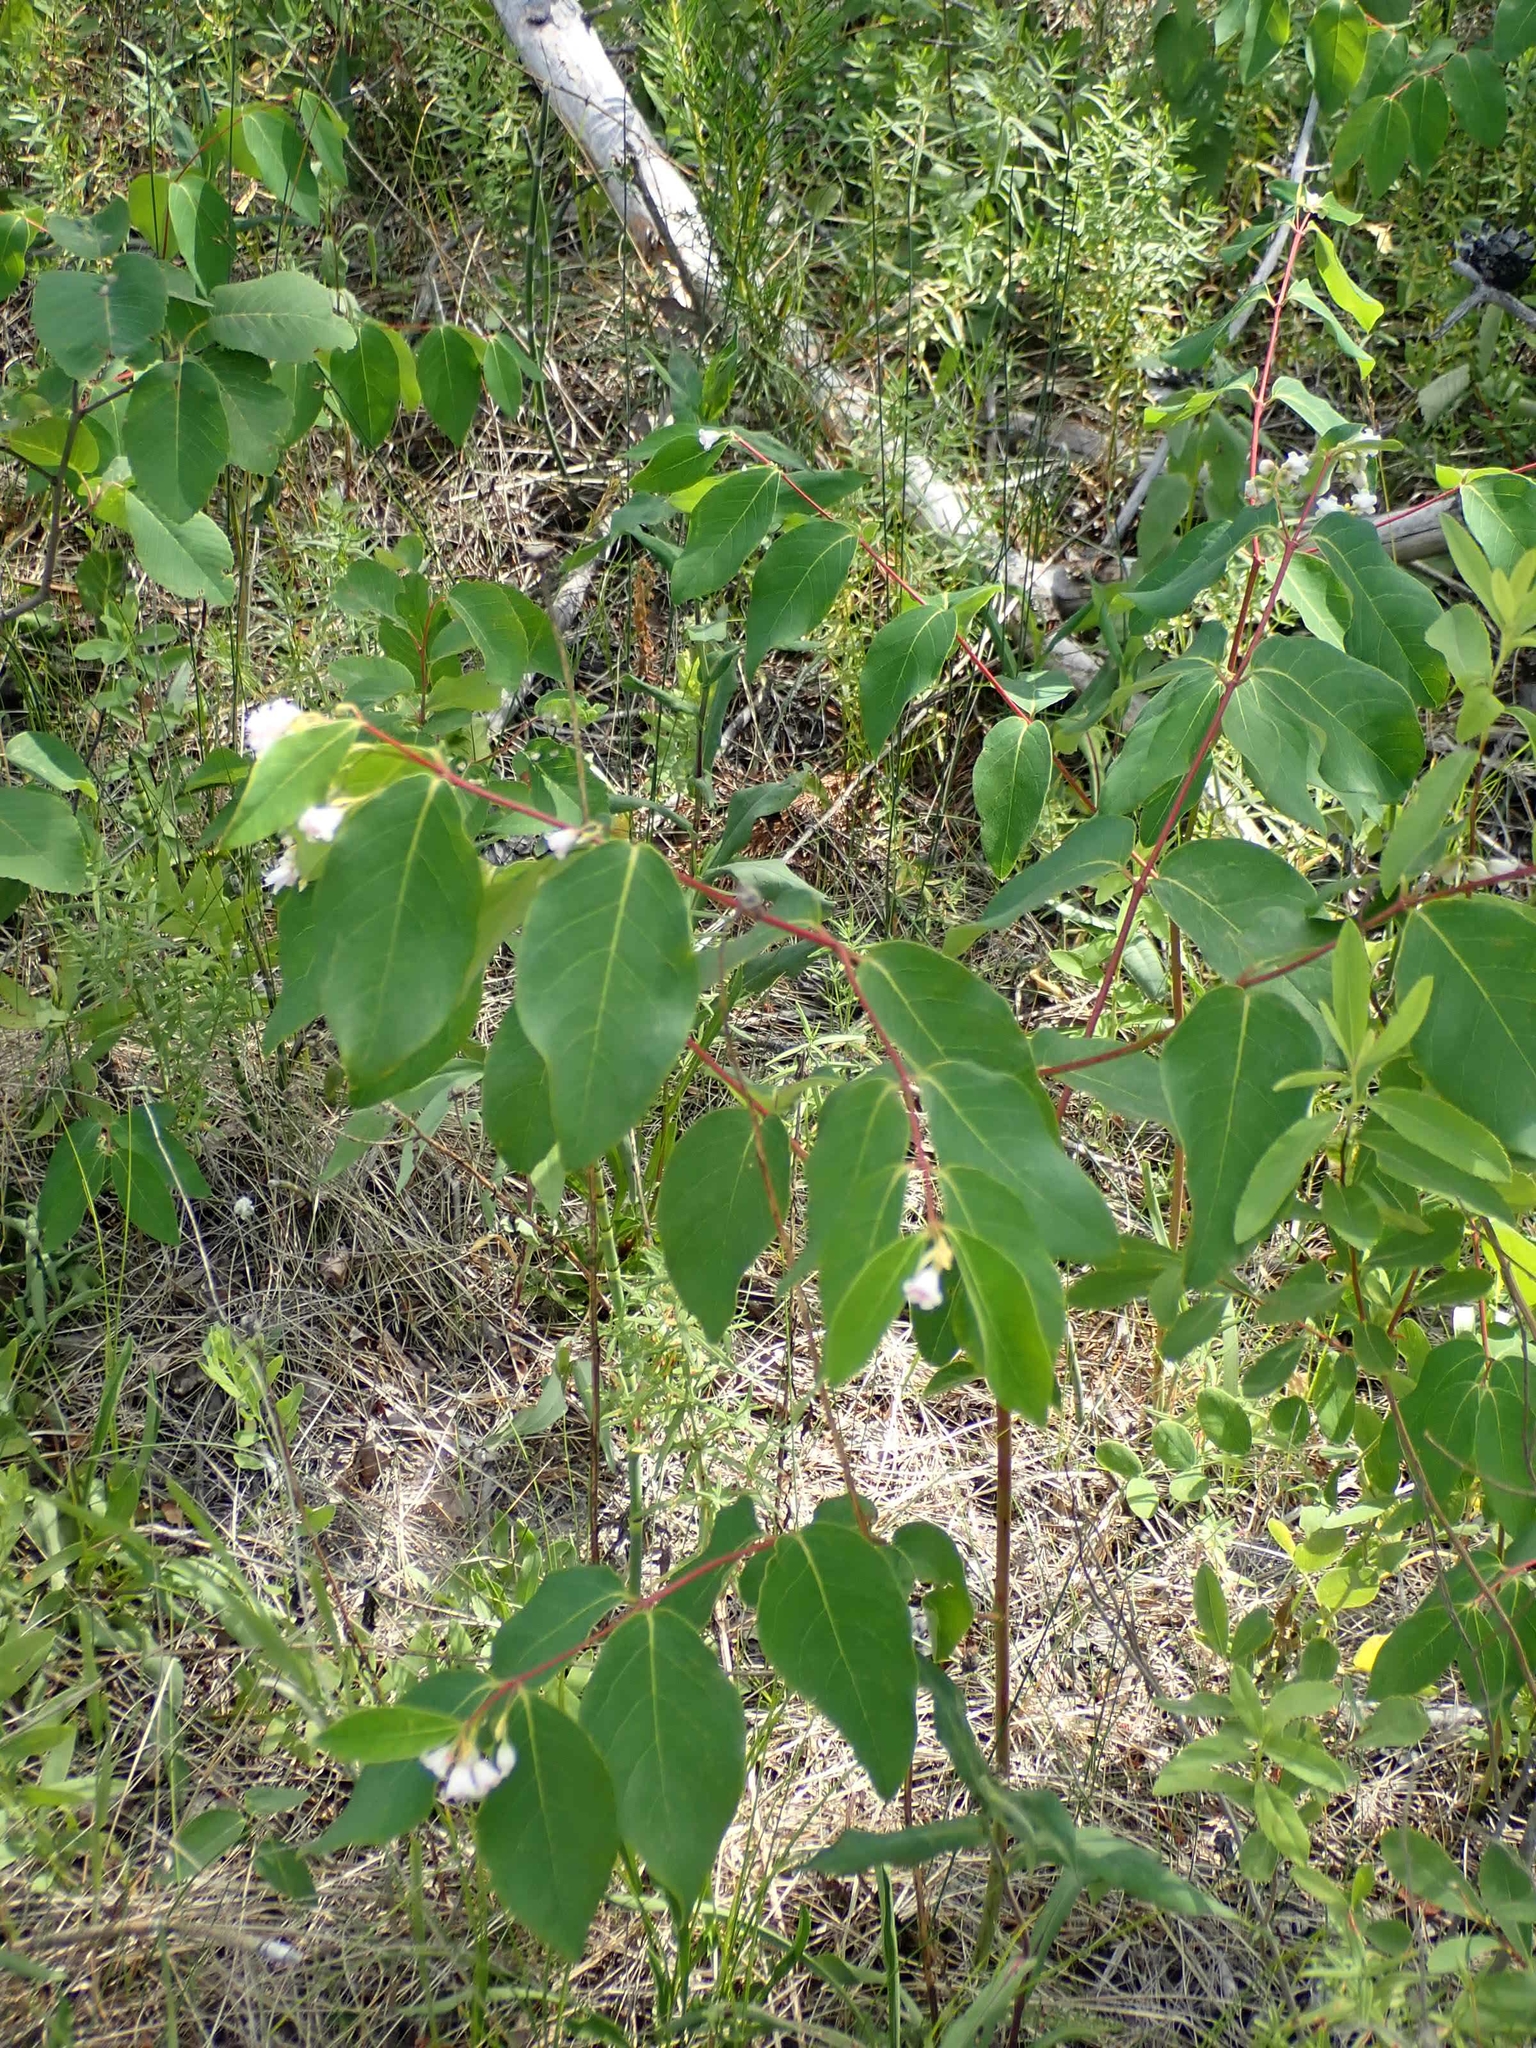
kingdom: Plantae
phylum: Tracheophyta
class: Magnoliopsida
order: Gentianales
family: Apocynaceae
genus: Apocynum
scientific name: Apocynum androsaemifolium
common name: Spreading dogbane
